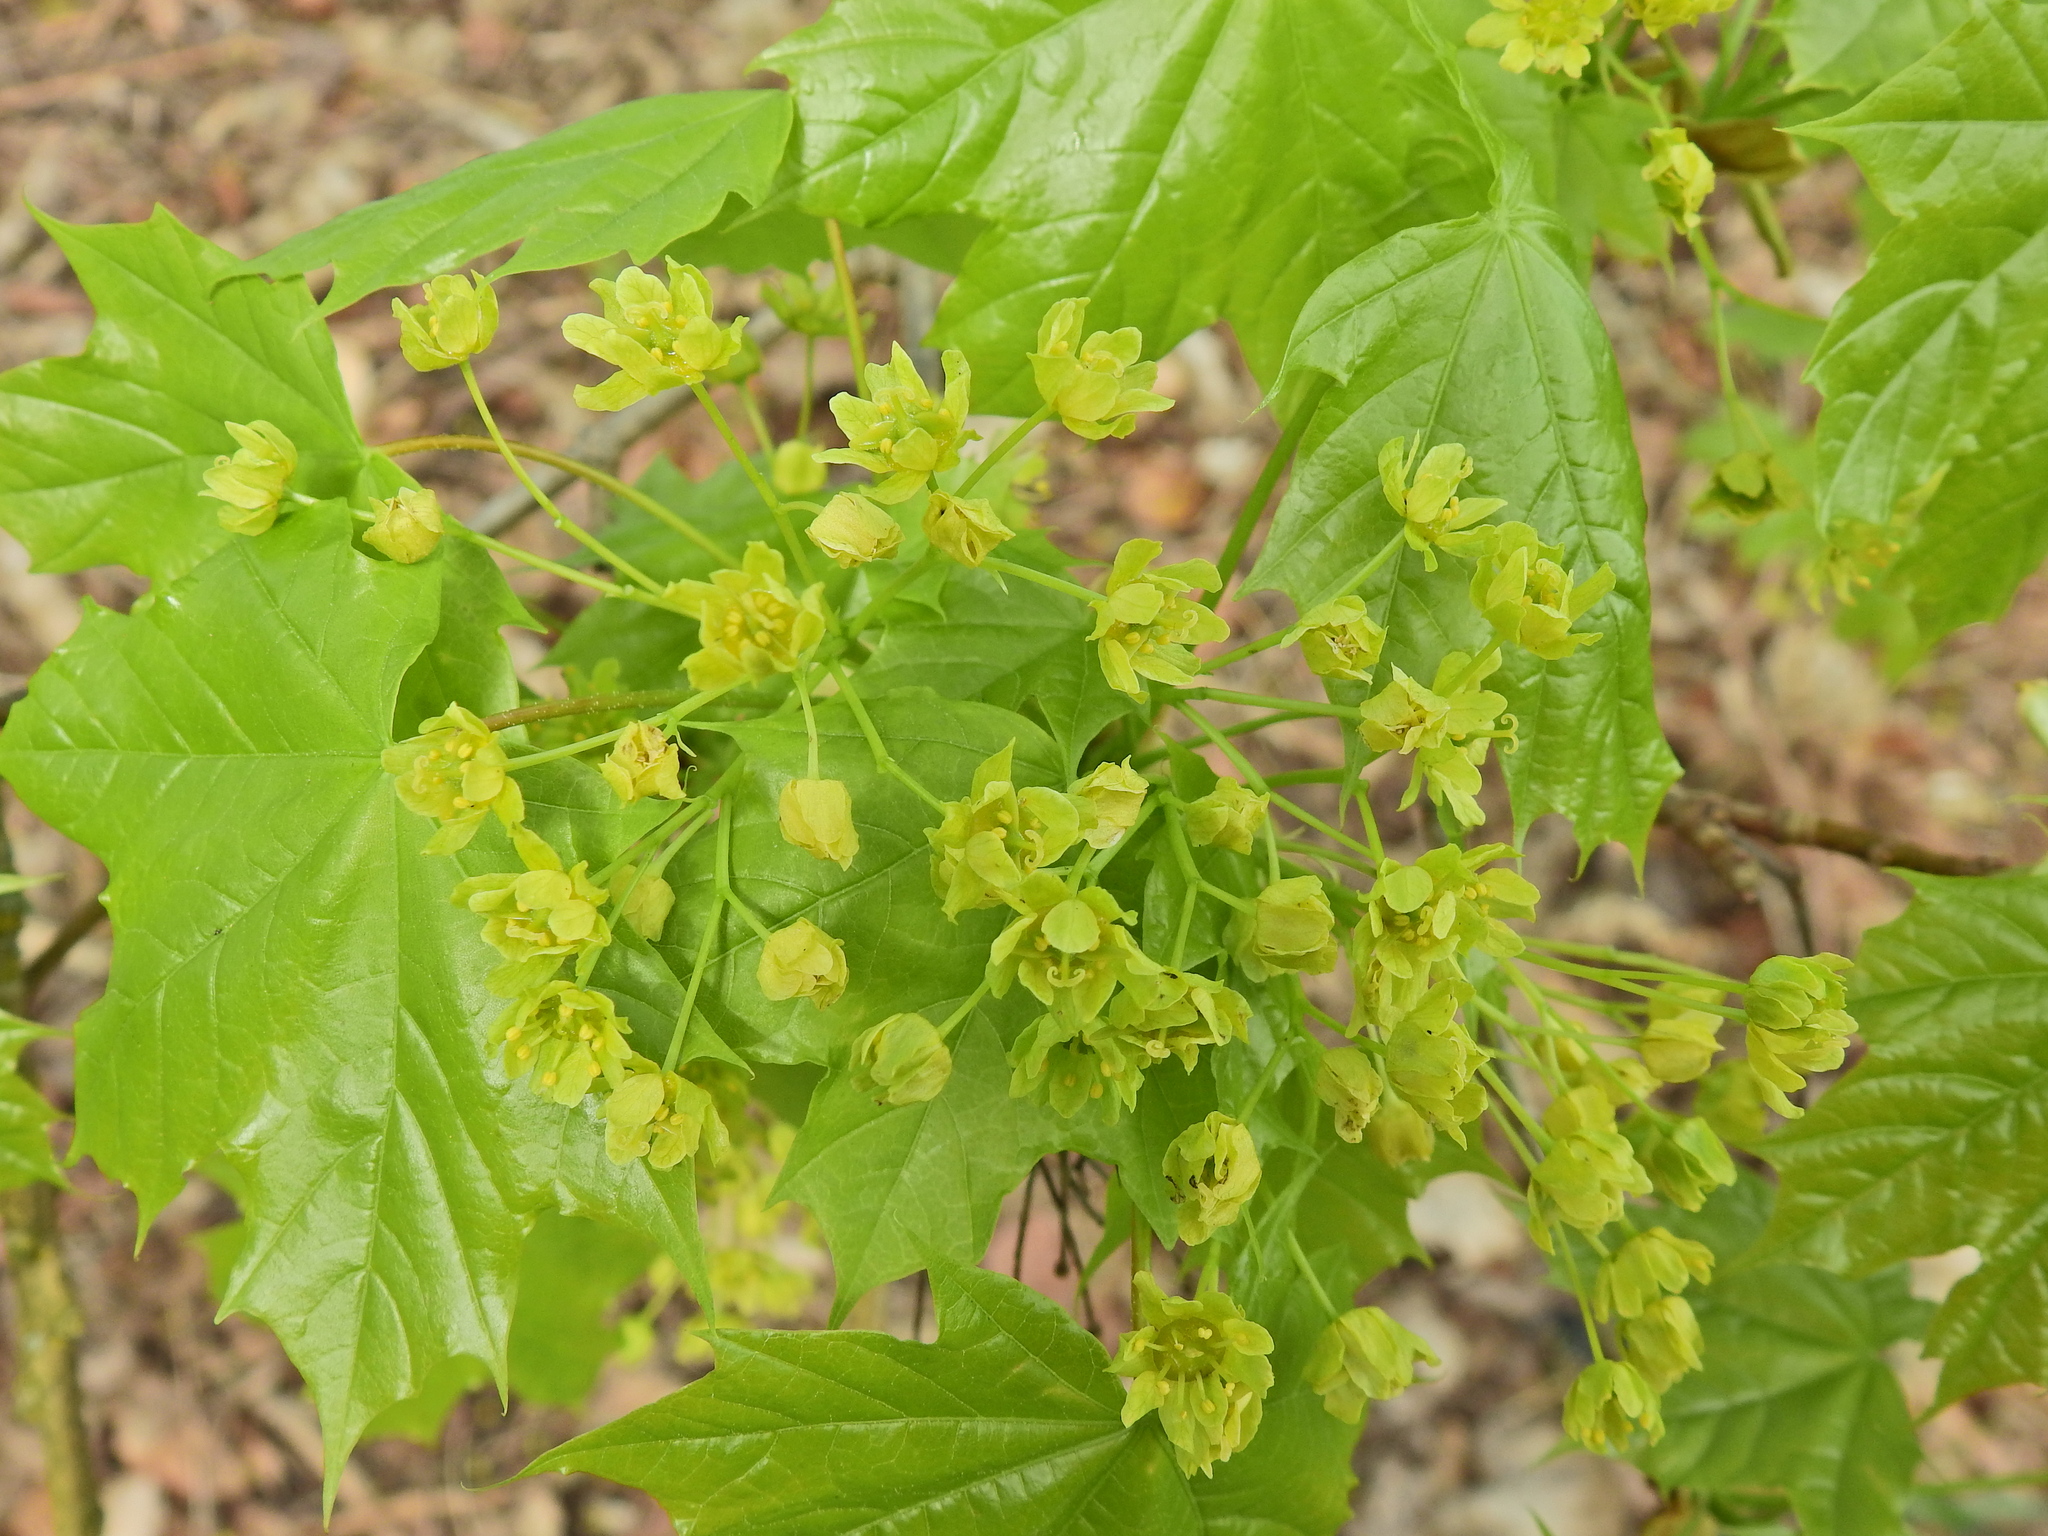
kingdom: Plantae
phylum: Tracheophyta
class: Magnoliopsida
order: Sapindales
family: Sapindaceae
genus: Acer
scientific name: Acer platanoides
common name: Norway maple
